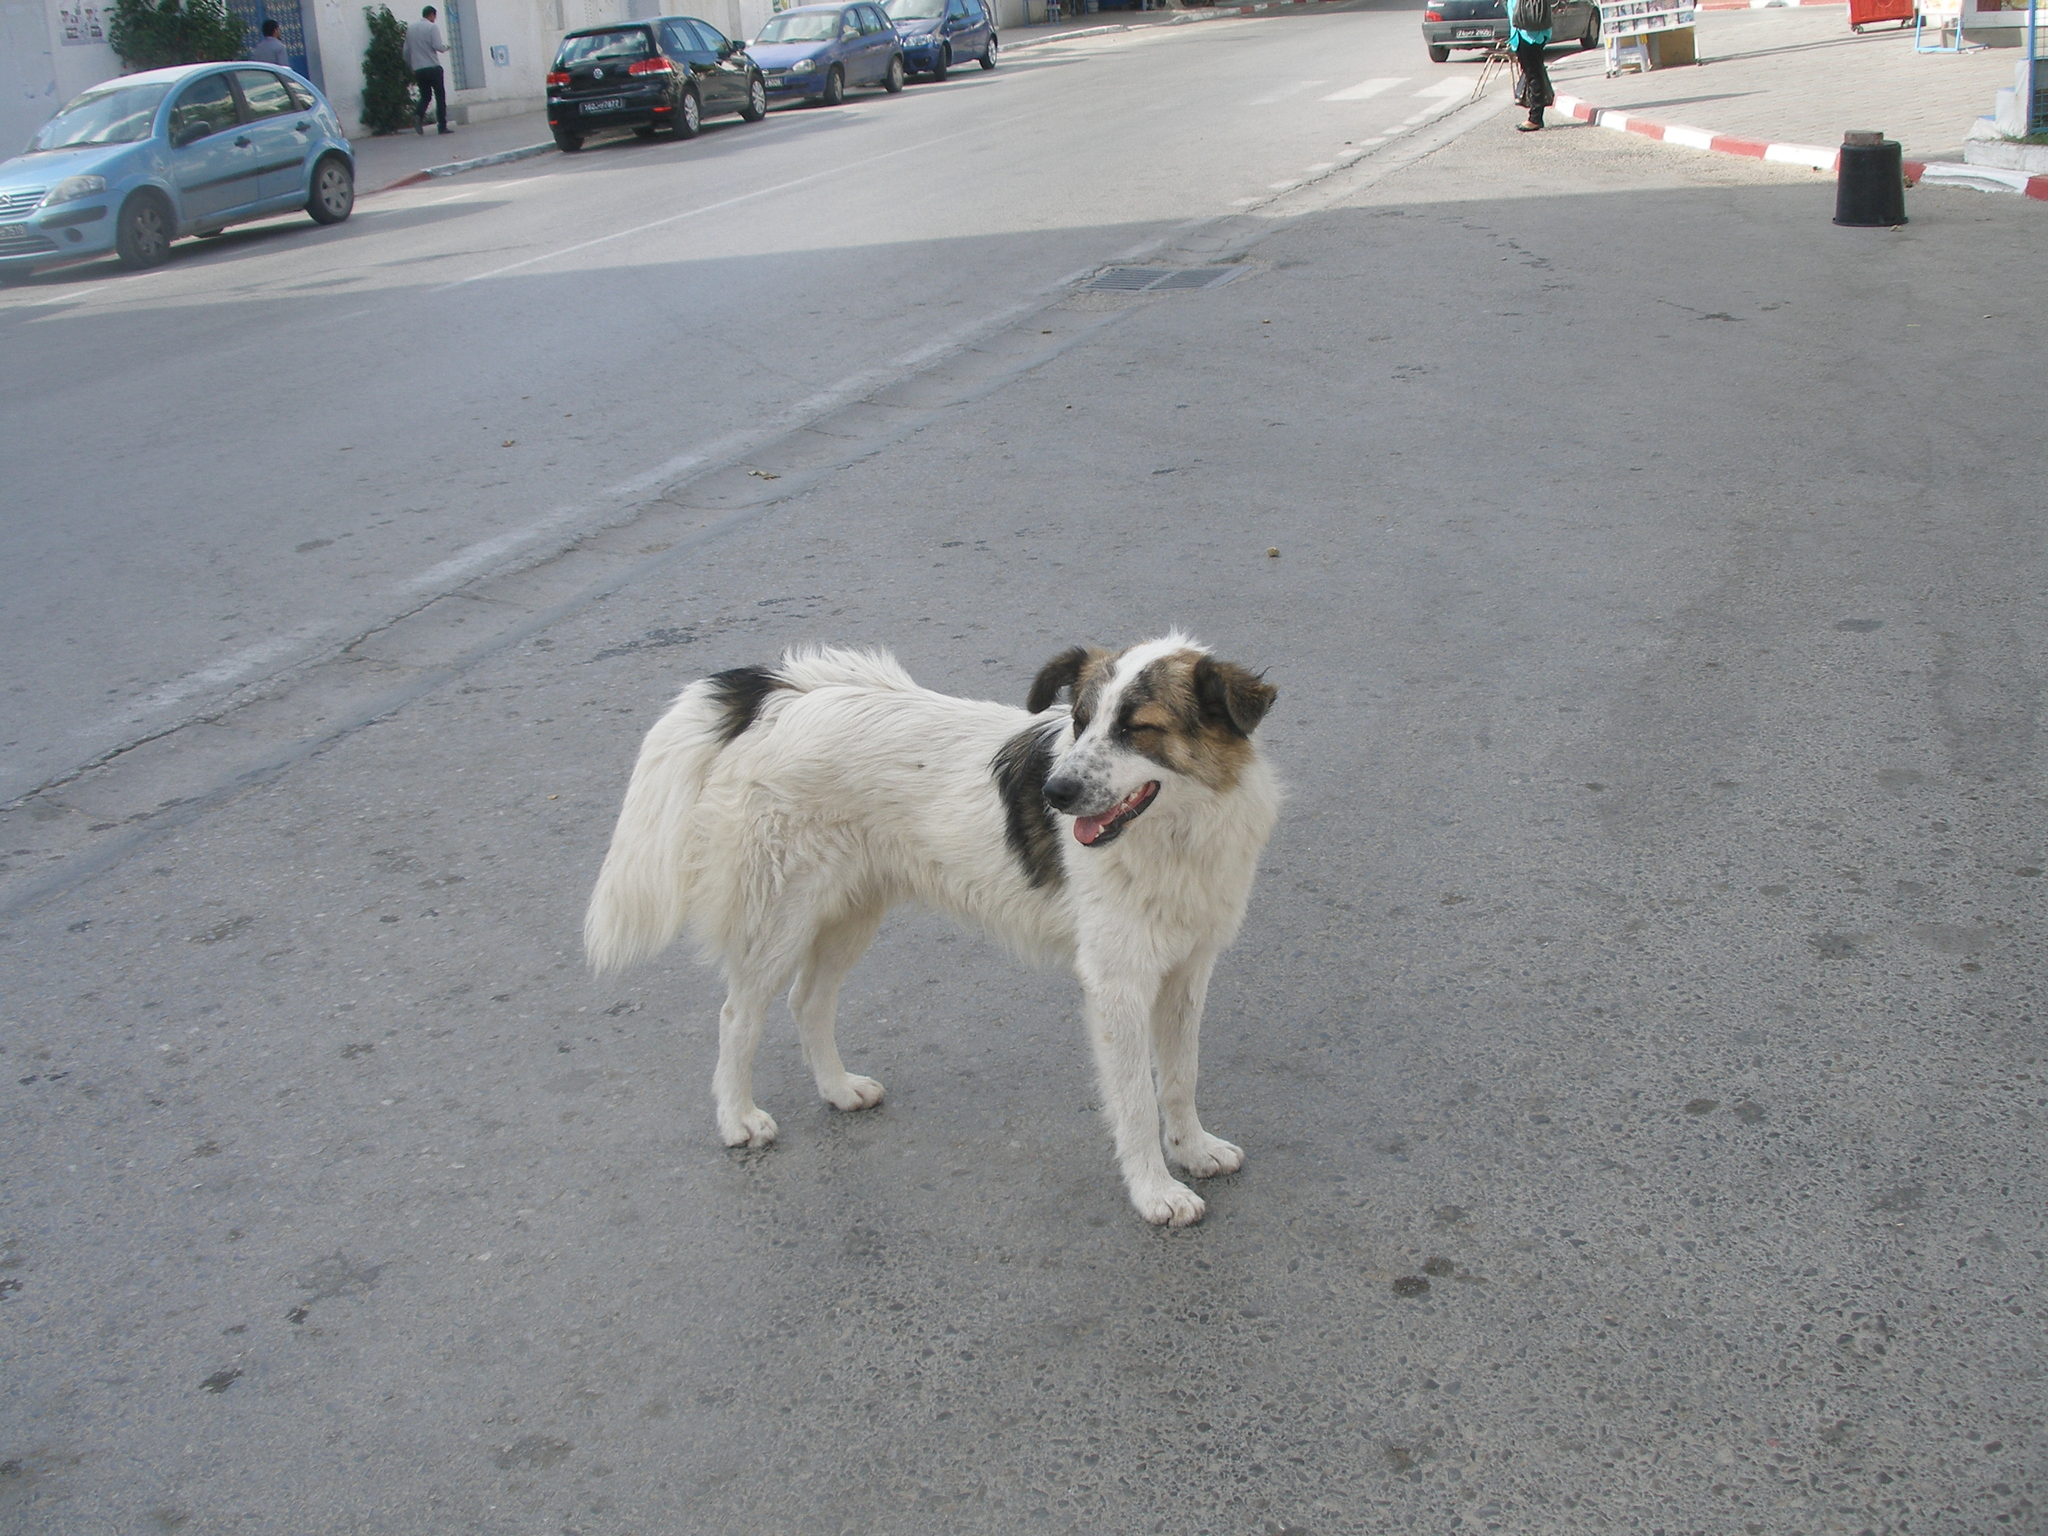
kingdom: Animalia
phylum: Chordata
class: Mammalia
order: Carnivora
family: Canidae
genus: Canis
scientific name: Canis lupus
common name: Gray wolf
